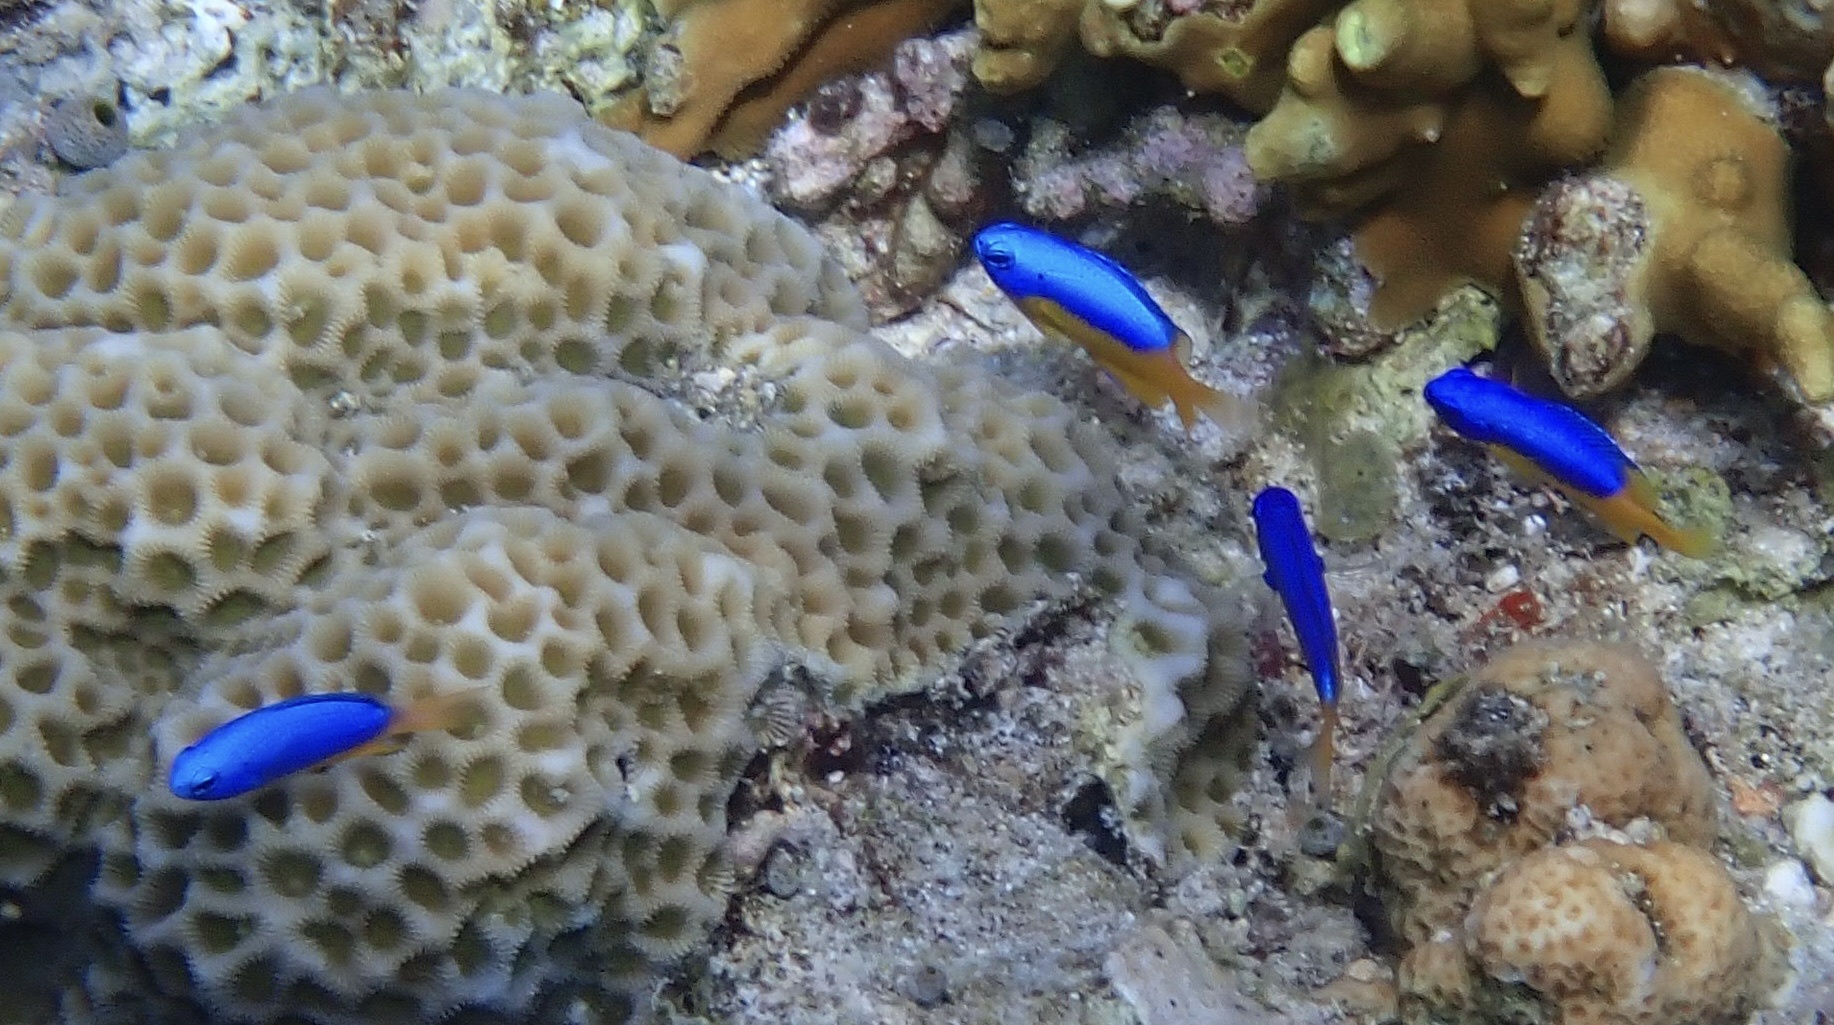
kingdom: Animalia
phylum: Chordata
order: Perciformes
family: Pomacentridae
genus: Pomacentrus
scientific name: Pomacentrus auriventris
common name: Goldbelly damsel
